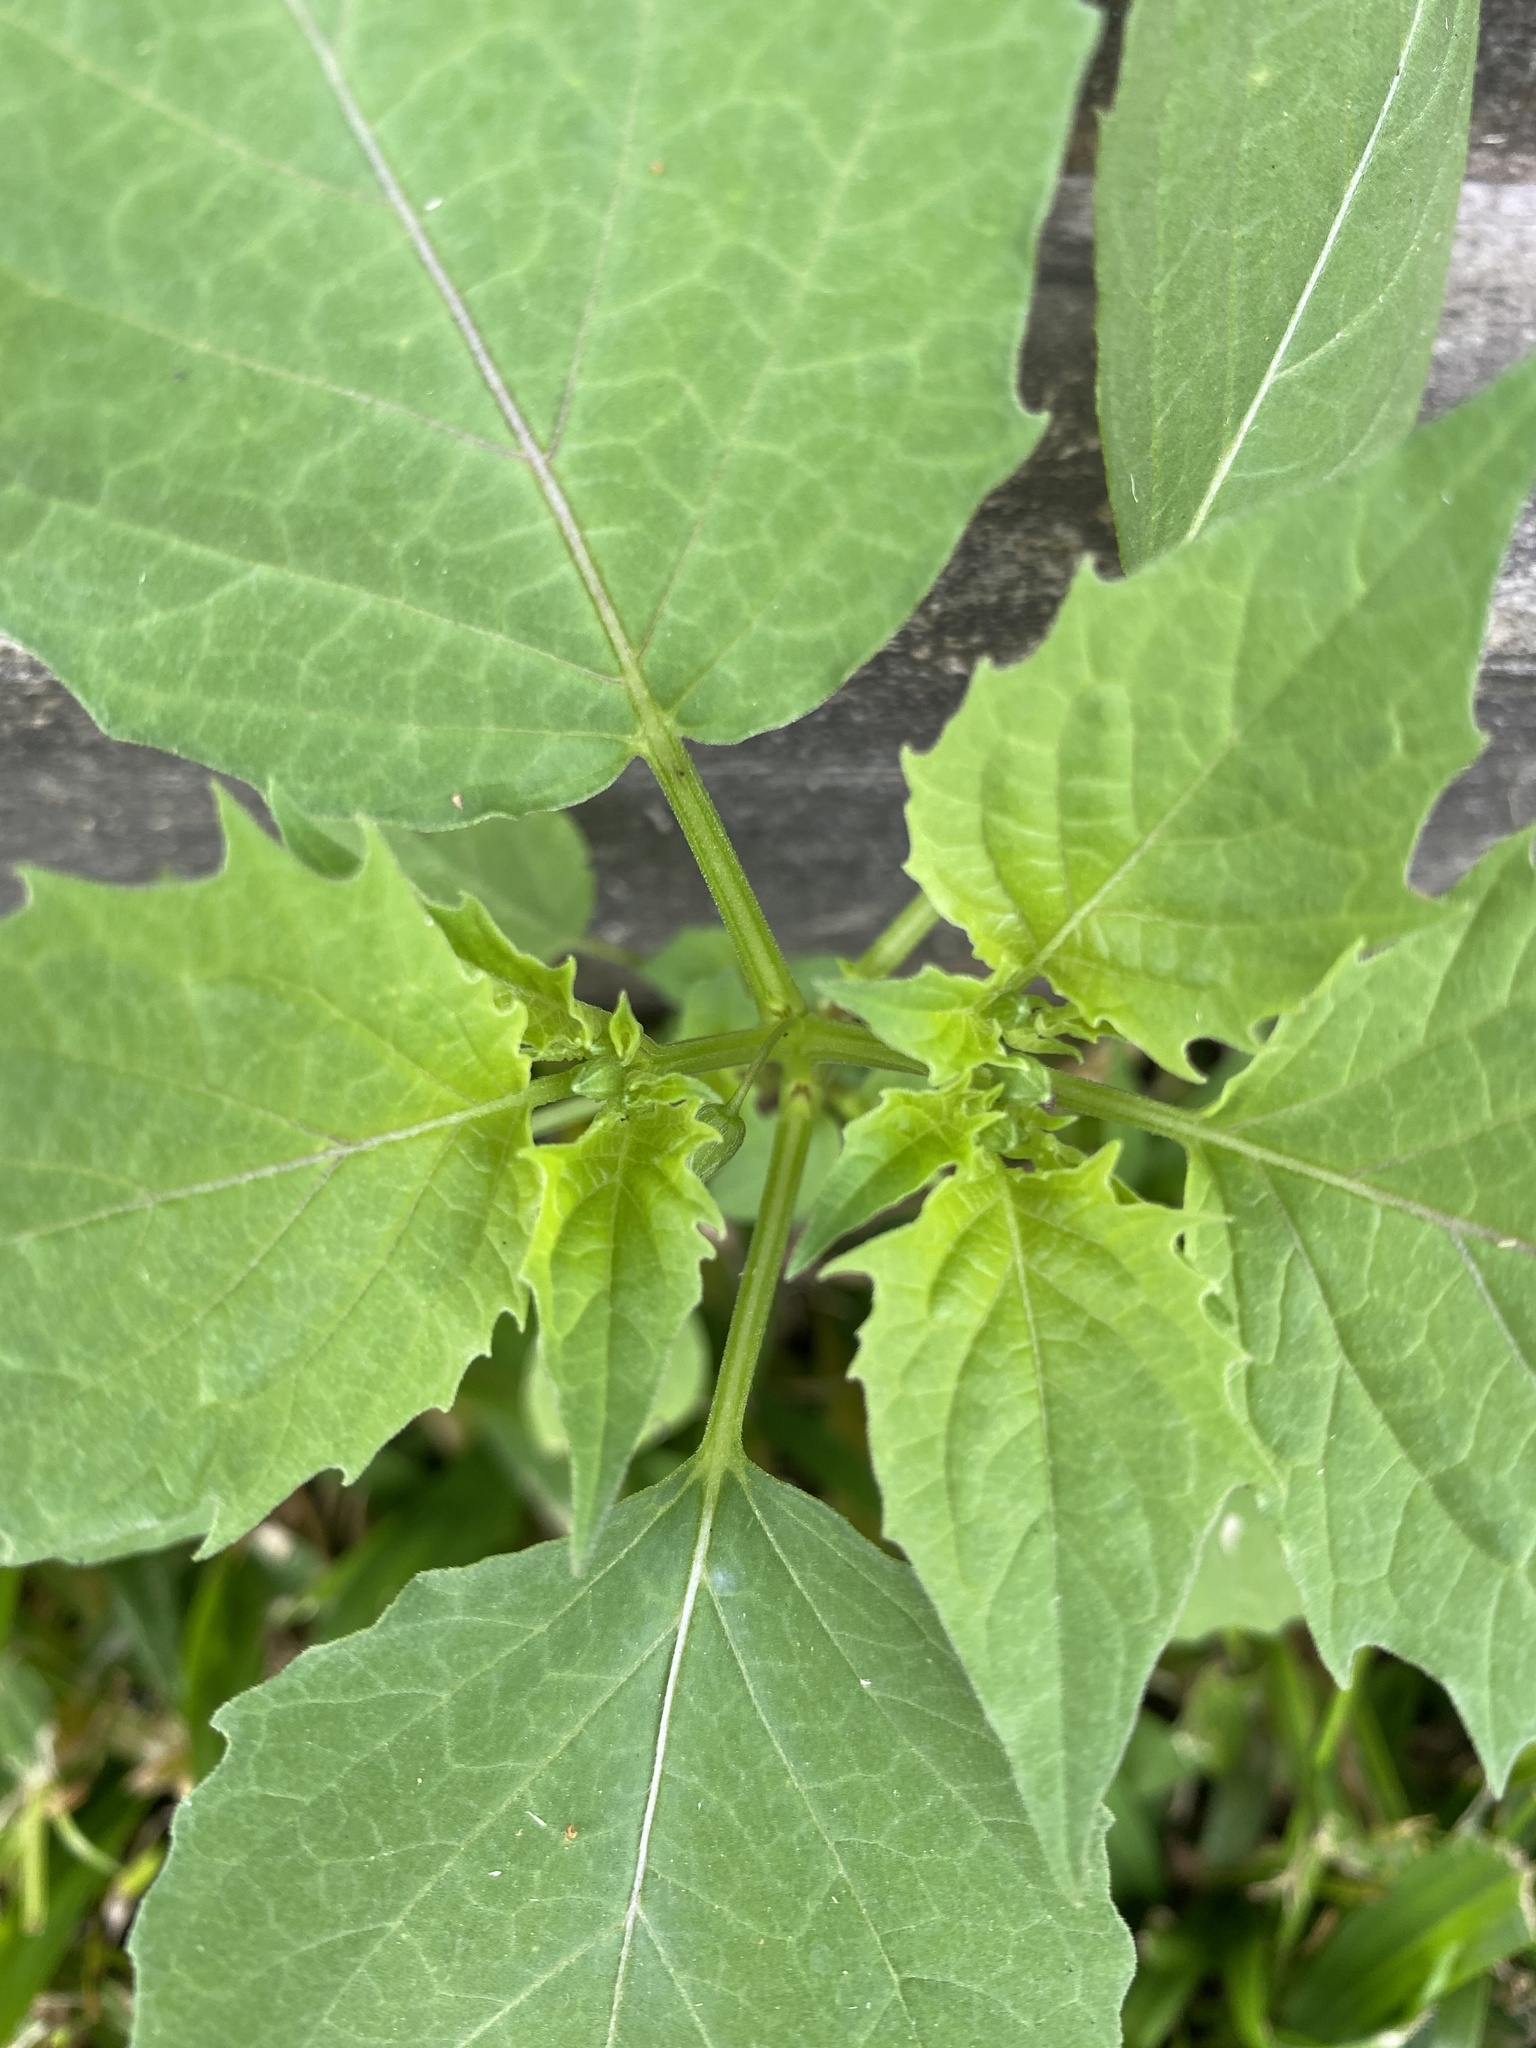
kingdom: Plantae
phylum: Tracheophyta
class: Magnoliopsida
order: Solanales
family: Solanaceae
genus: Physalis
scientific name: Physalis angulata
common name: Angular winter-cherry
